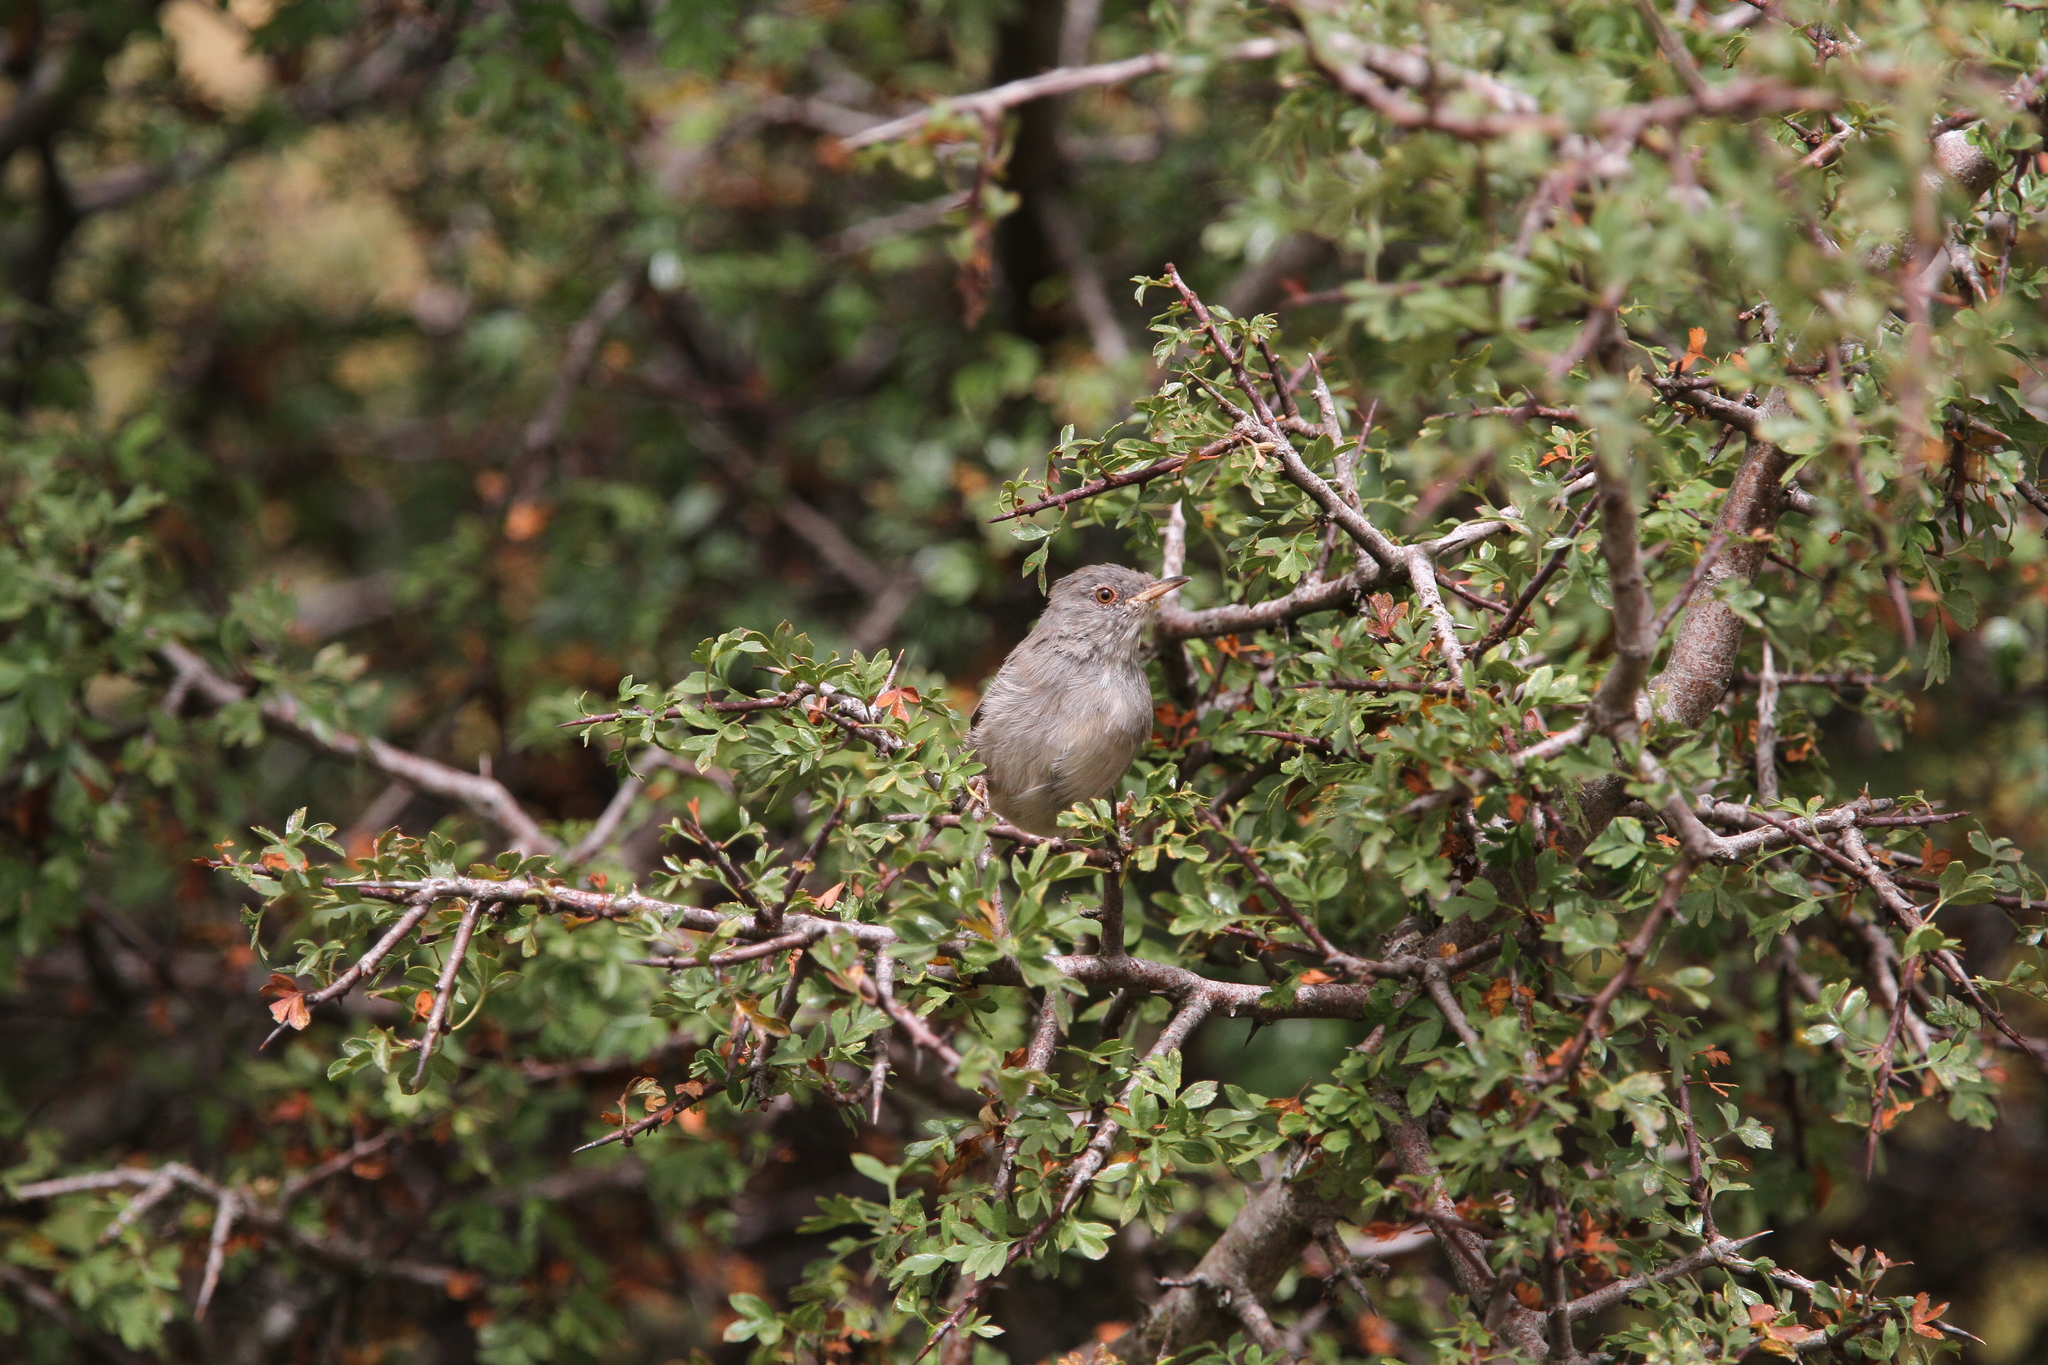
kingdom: Animalia
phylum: Chordata
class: Aves
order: Passeriformes
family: Sylviidae
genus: Sylvia
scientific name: Sylvia sarda
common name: Marmora's warbler
